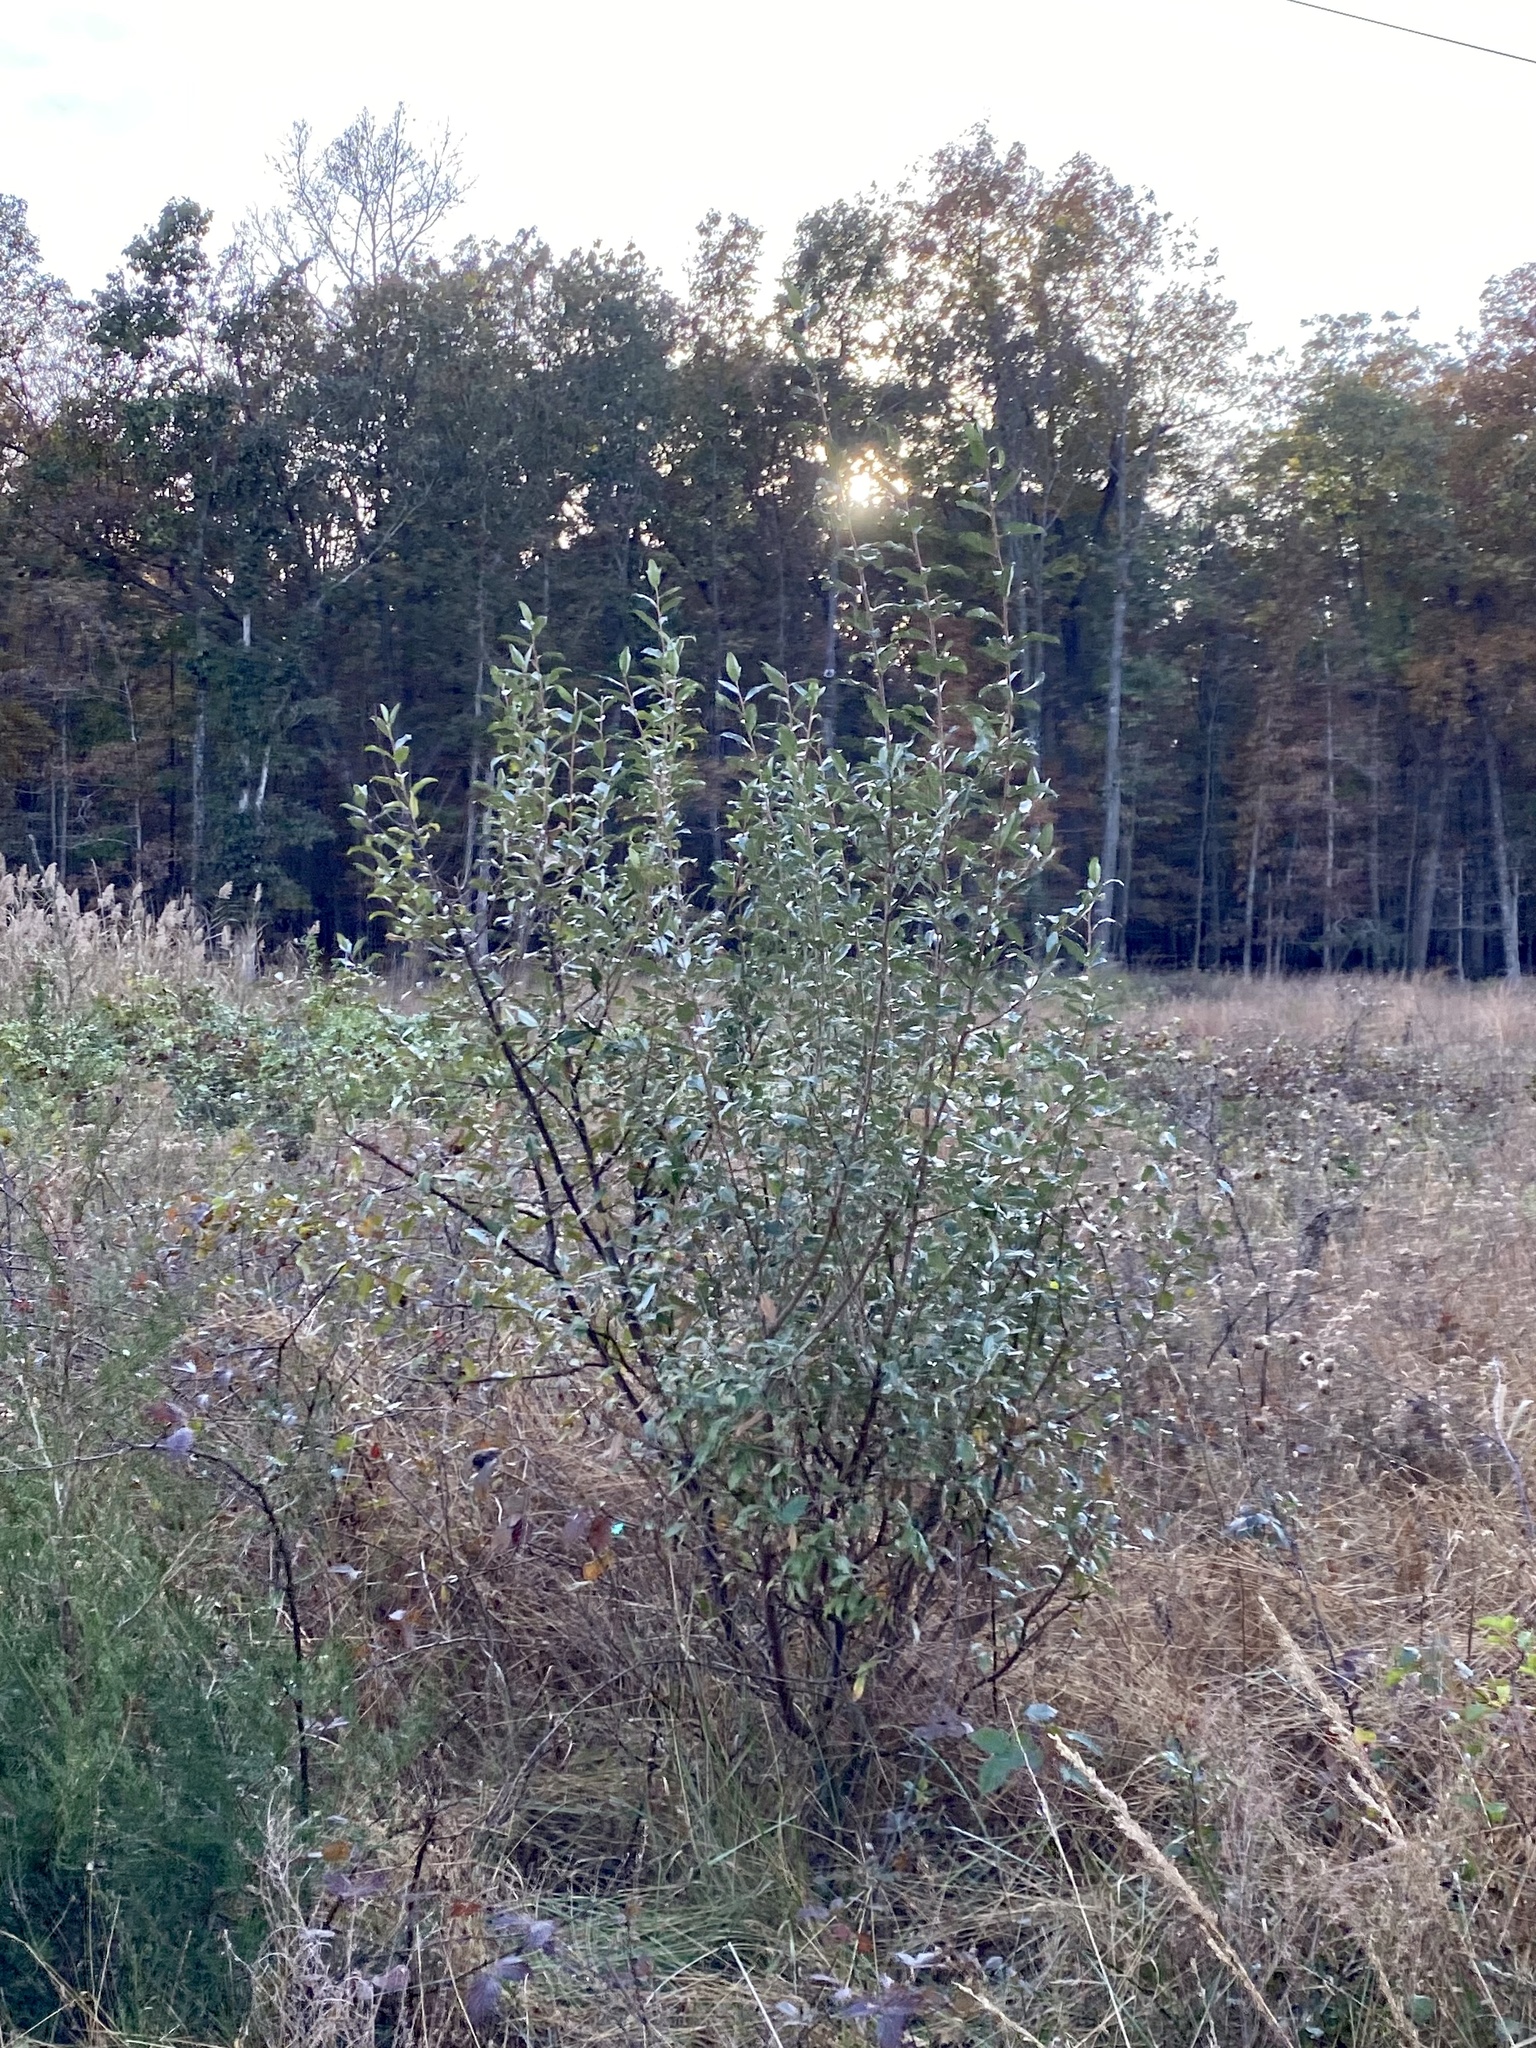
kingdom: Plantae
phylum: Tracheophyta
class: Magnoliopsida
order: Rosales
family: Elaeagnaceae
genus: Elaeagnus
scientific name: Elaeagnus umbellata
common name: Autumn olive
